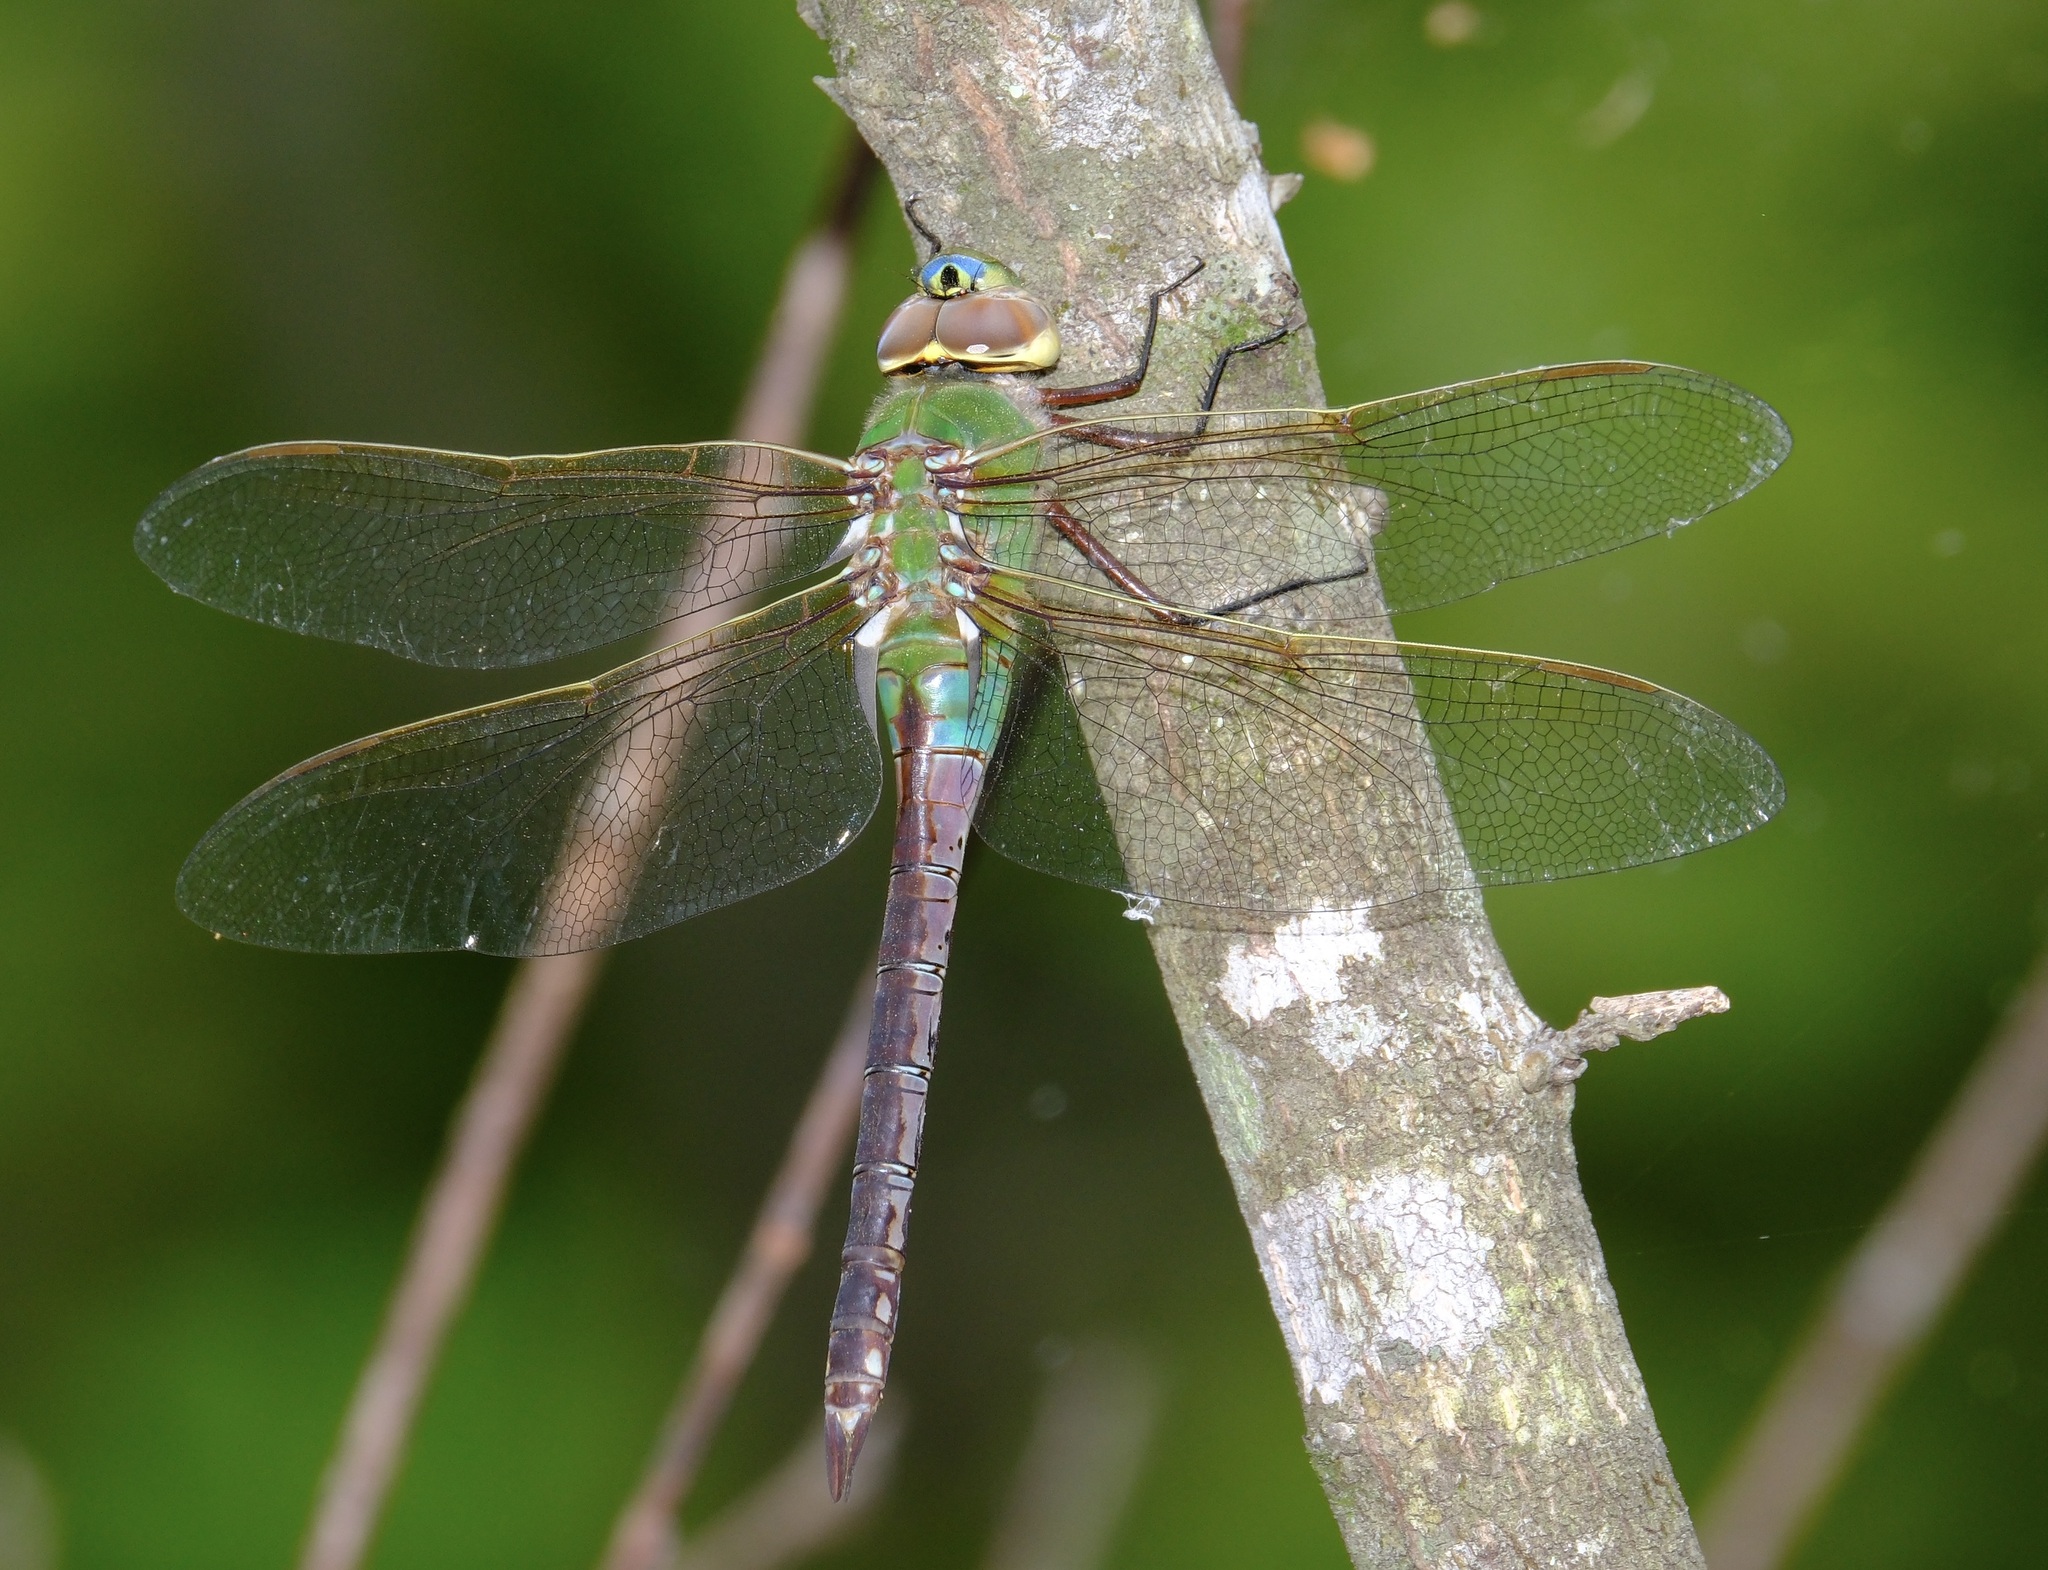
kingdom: Animalia
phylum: Arthropoda
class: Insecta
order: Odonata
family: Aeshnidae
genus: Anax
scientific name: Anax junius
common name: Common green darner
